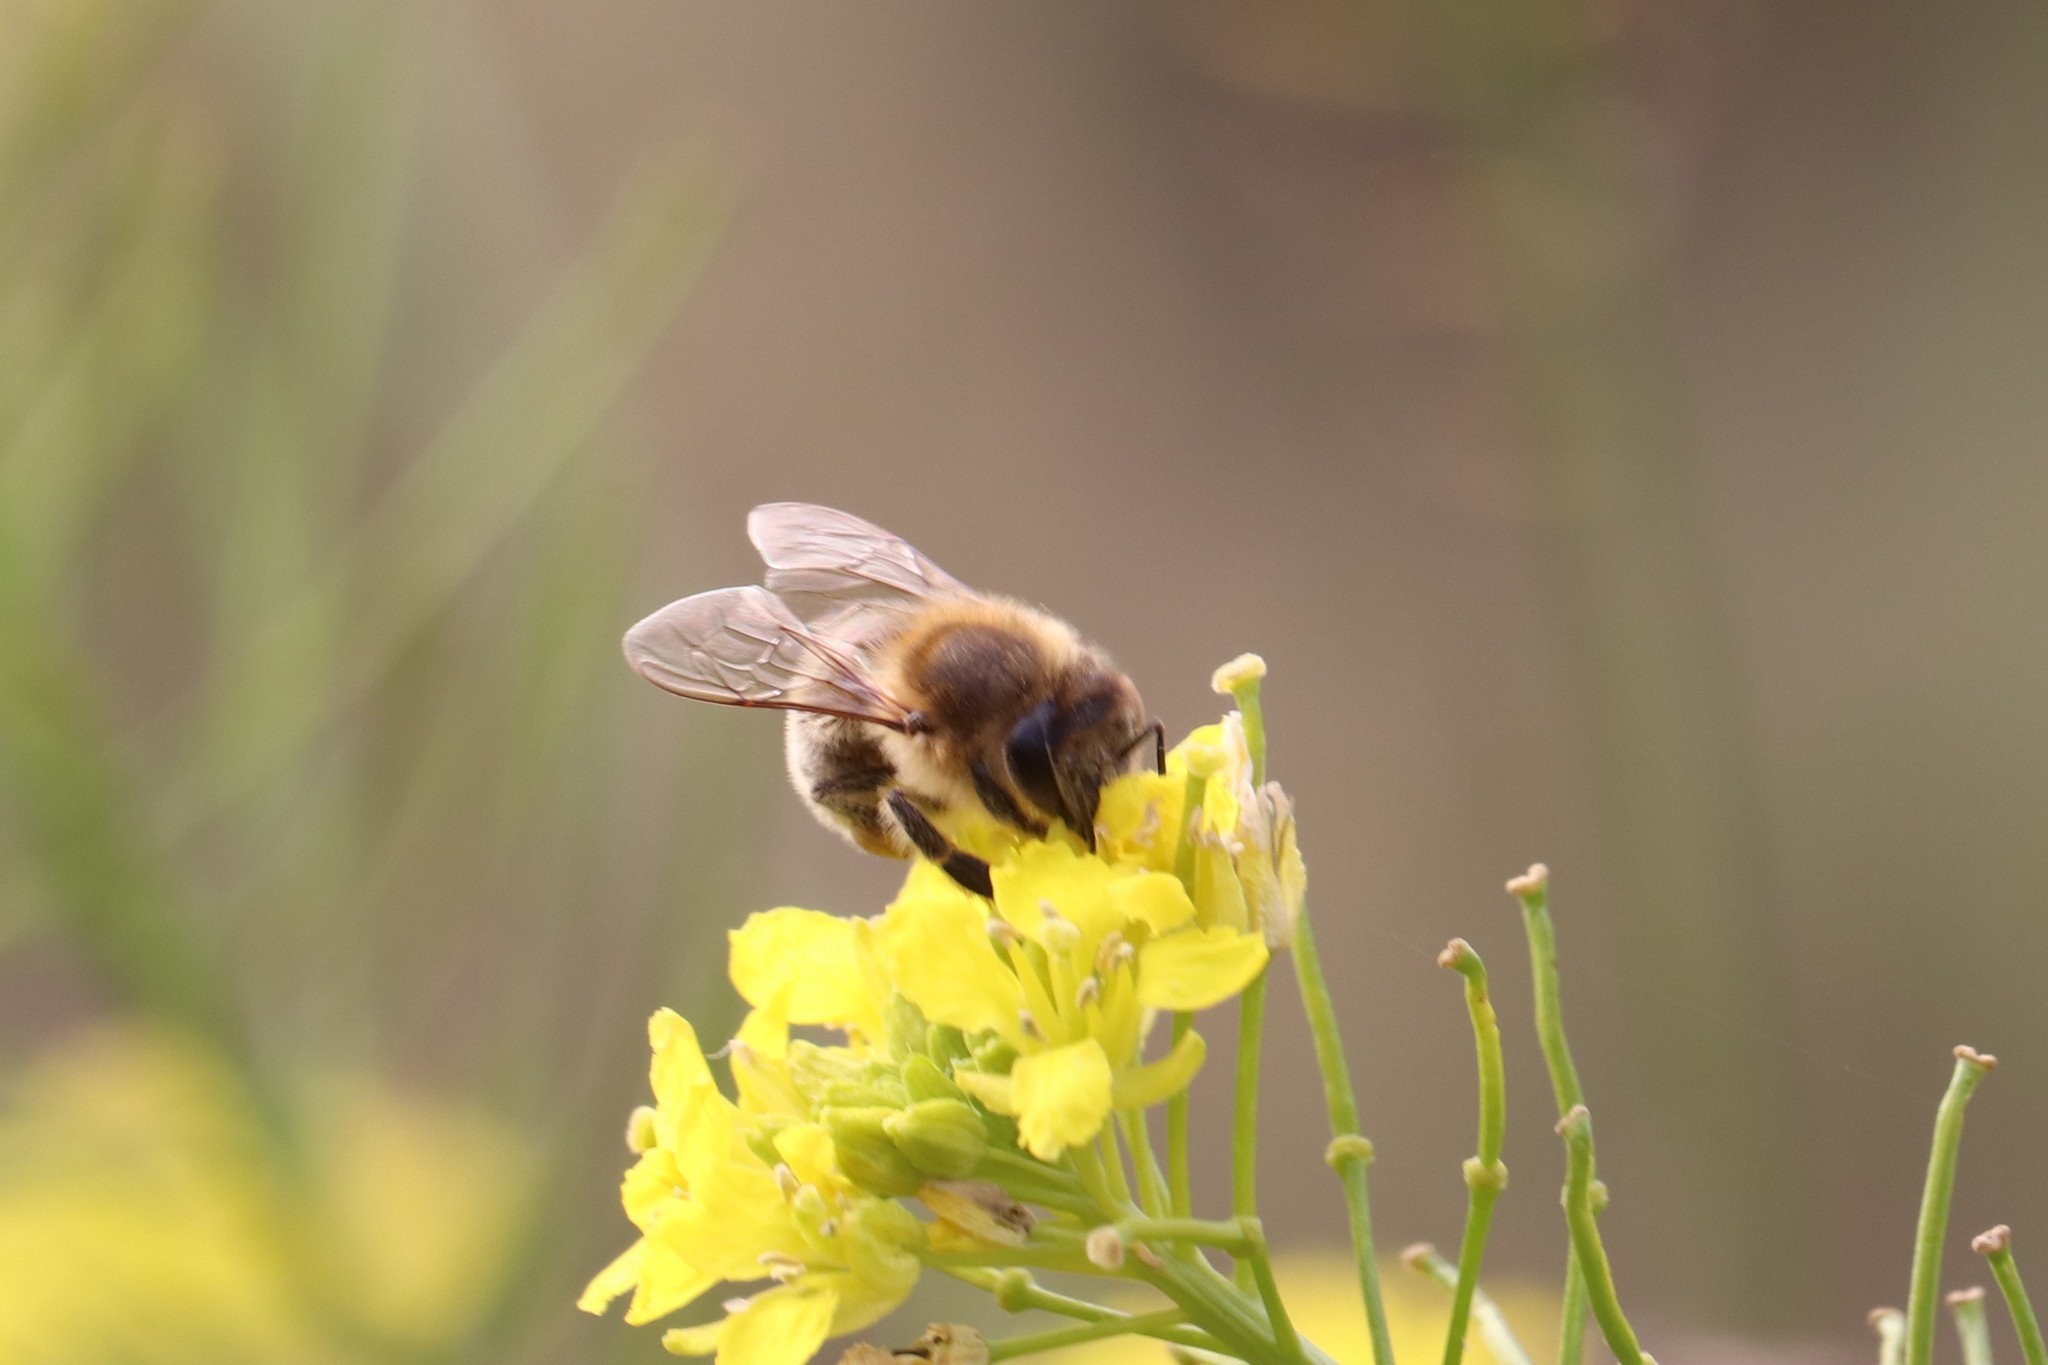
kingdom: Animalia
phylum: Arthropoda
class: Insecta
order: Hymenoptera
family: Apidae
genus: Apis
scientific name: Apis mellifera
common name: Honey bee
